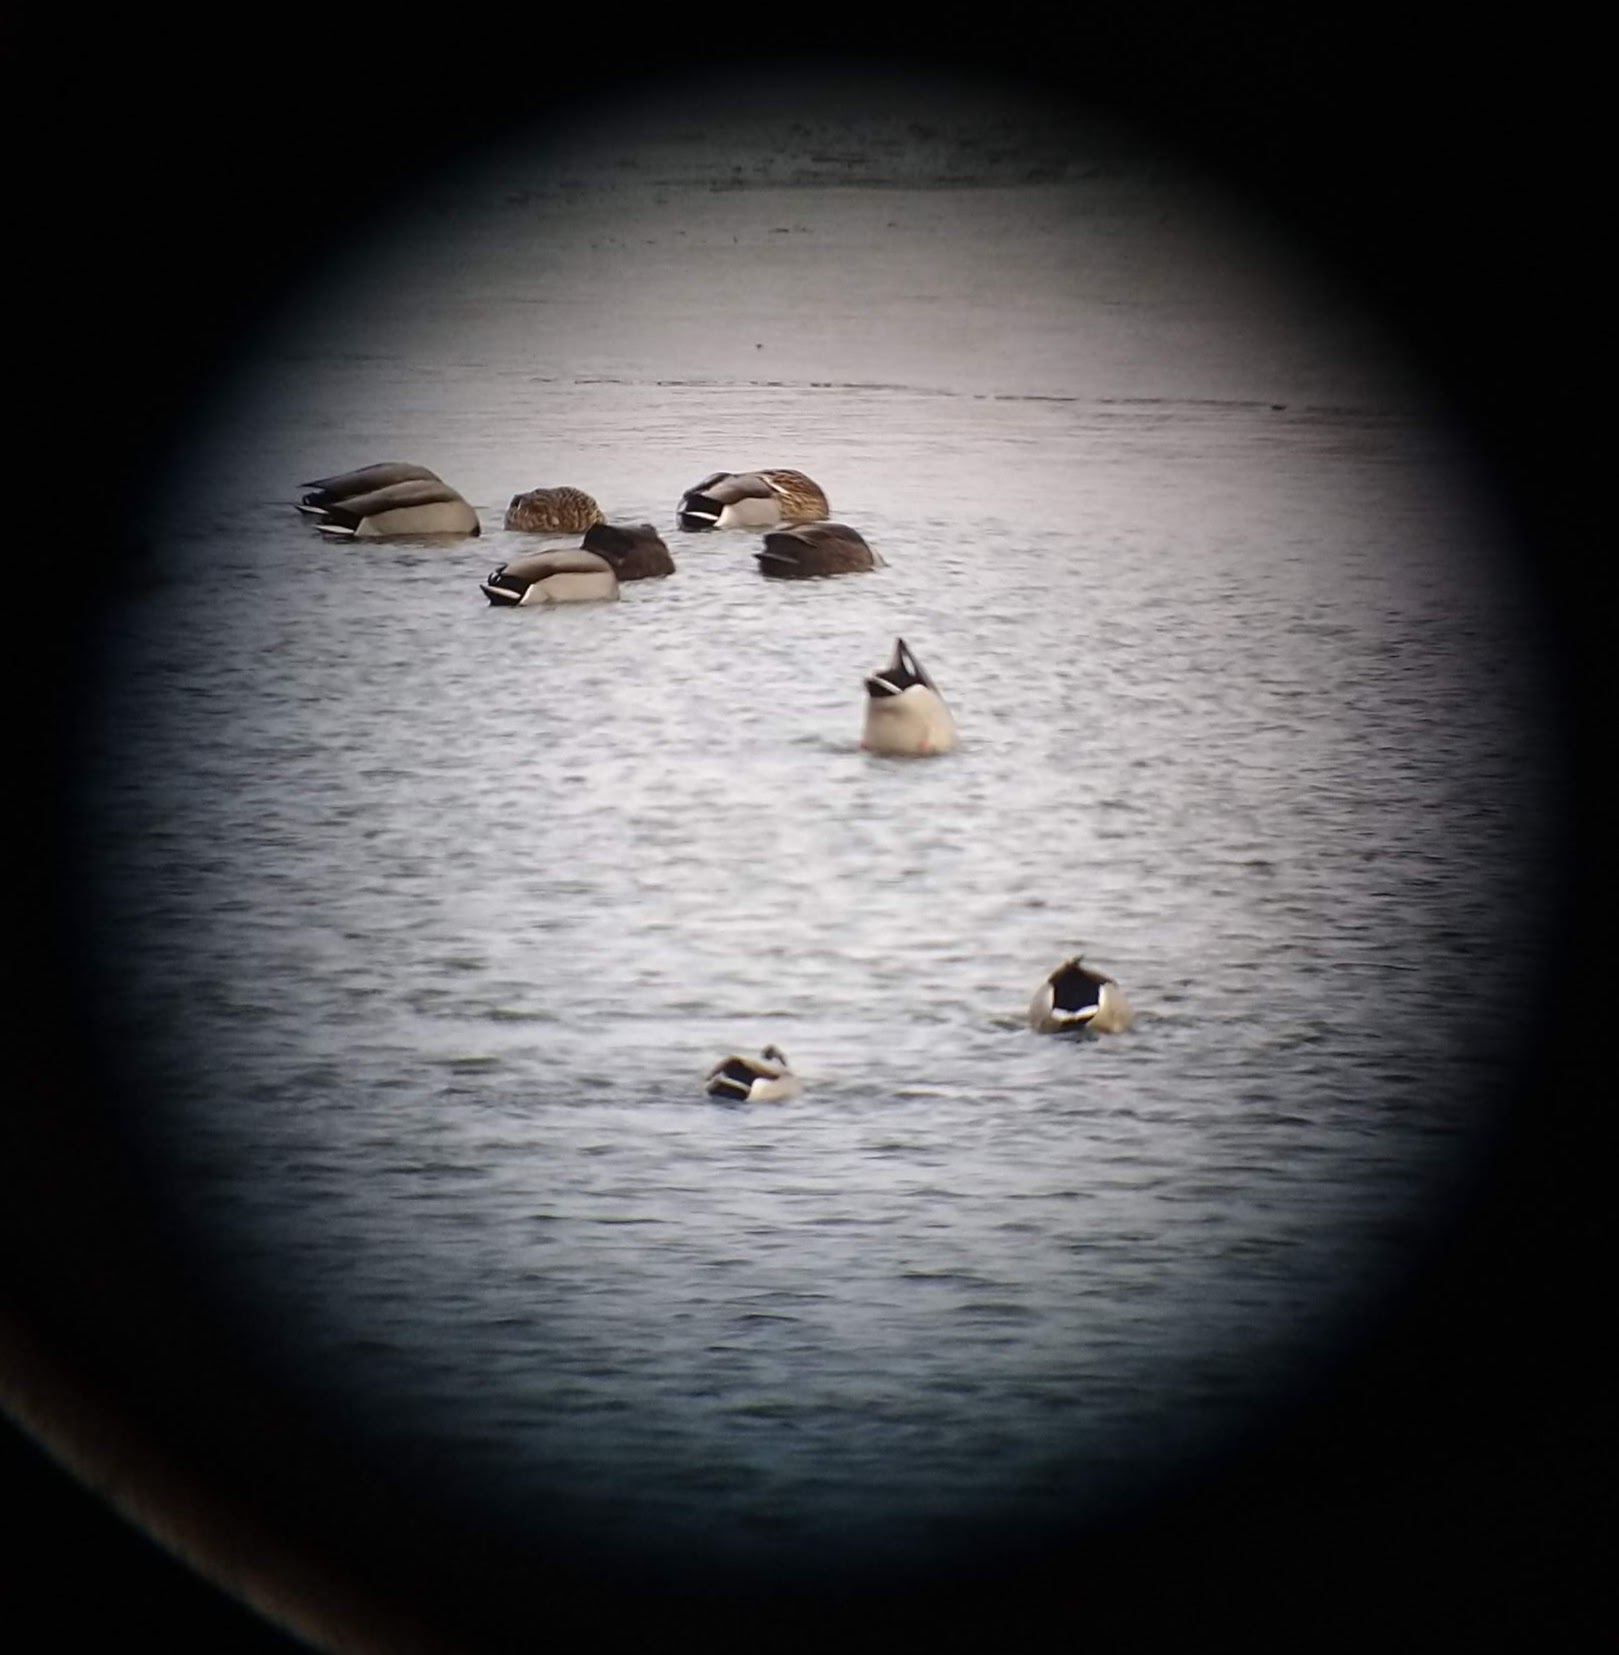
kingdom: Animalia
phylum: Chordata
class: Aves
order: Anseriformes
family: Anatidae
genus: Anas
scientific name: Anas rubripes
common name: American black duck
